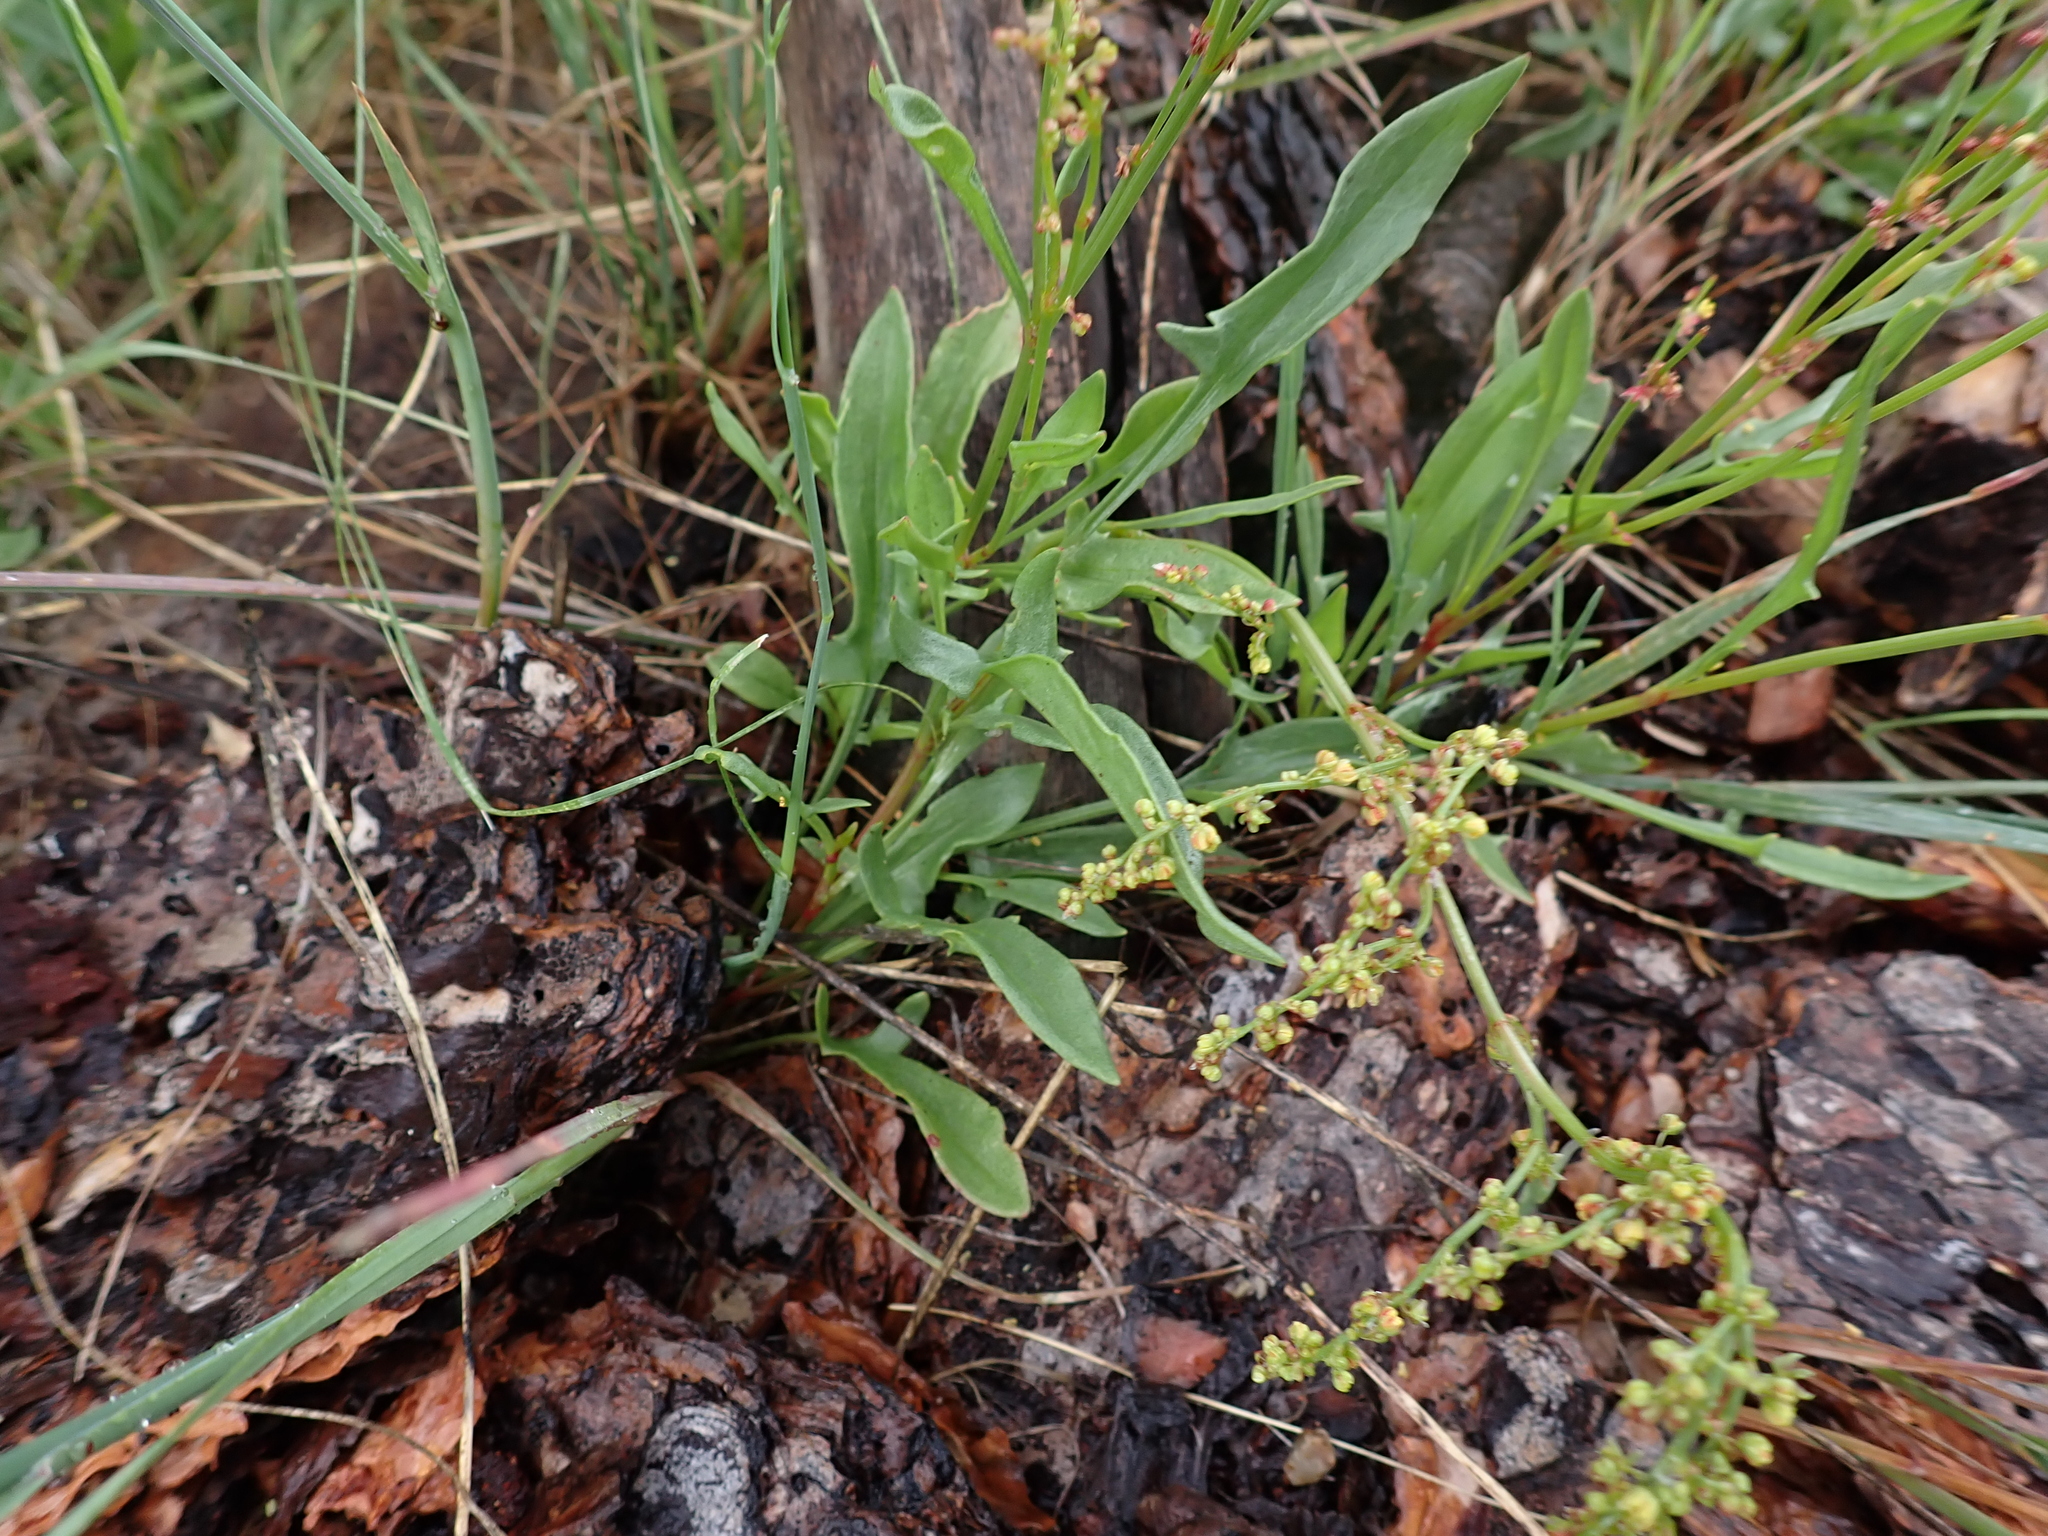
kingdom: Plantae
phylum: Tracheophyta
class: Magnoliopsida
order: Caryophyllales
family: Polygonaceae
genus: Rumex
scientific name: Rumex acetosella
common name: Common sheep sorrel
